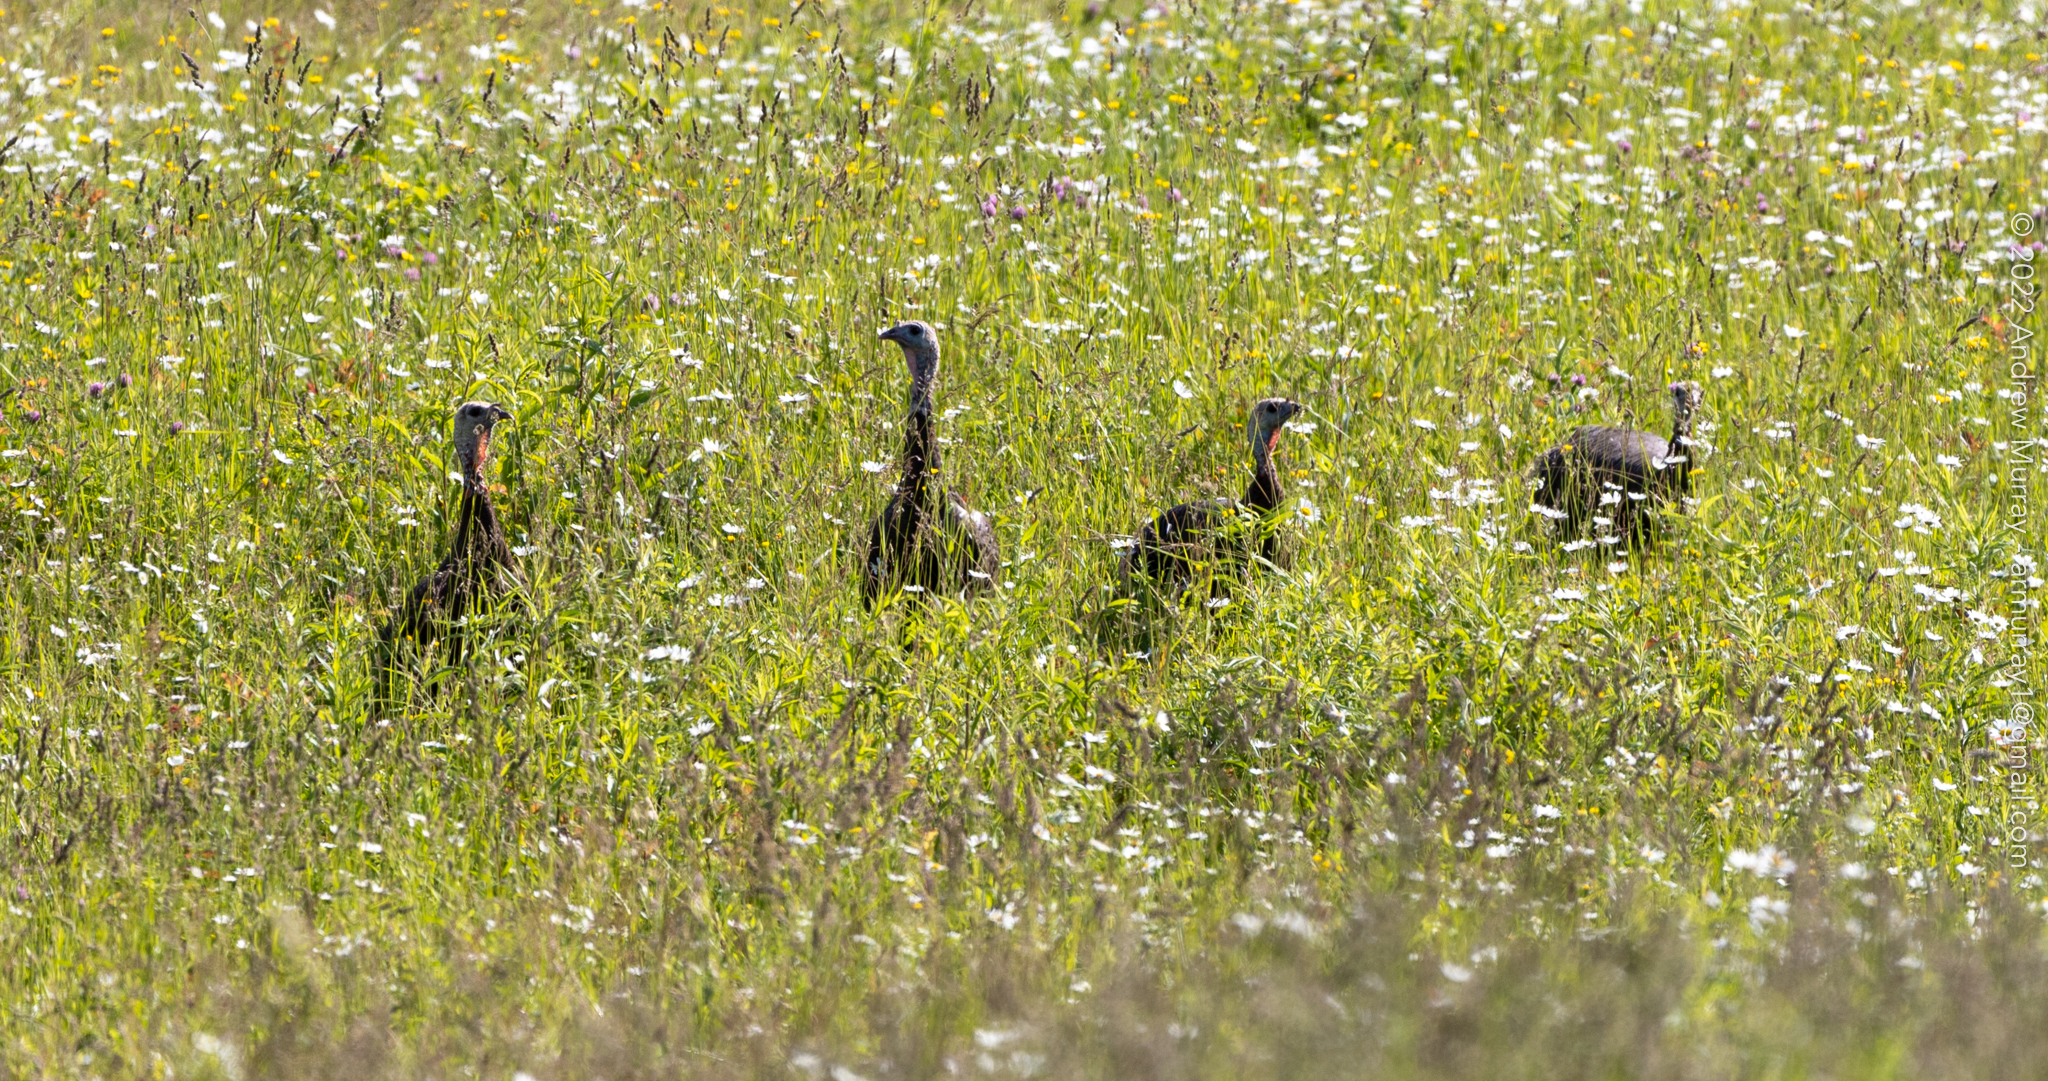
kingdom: Animalia
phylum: Chordata
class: Aves
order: Galliformes
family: Phasianidae
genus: Meleagris
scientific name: Meleagris gallopavo
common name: Wild turkey
